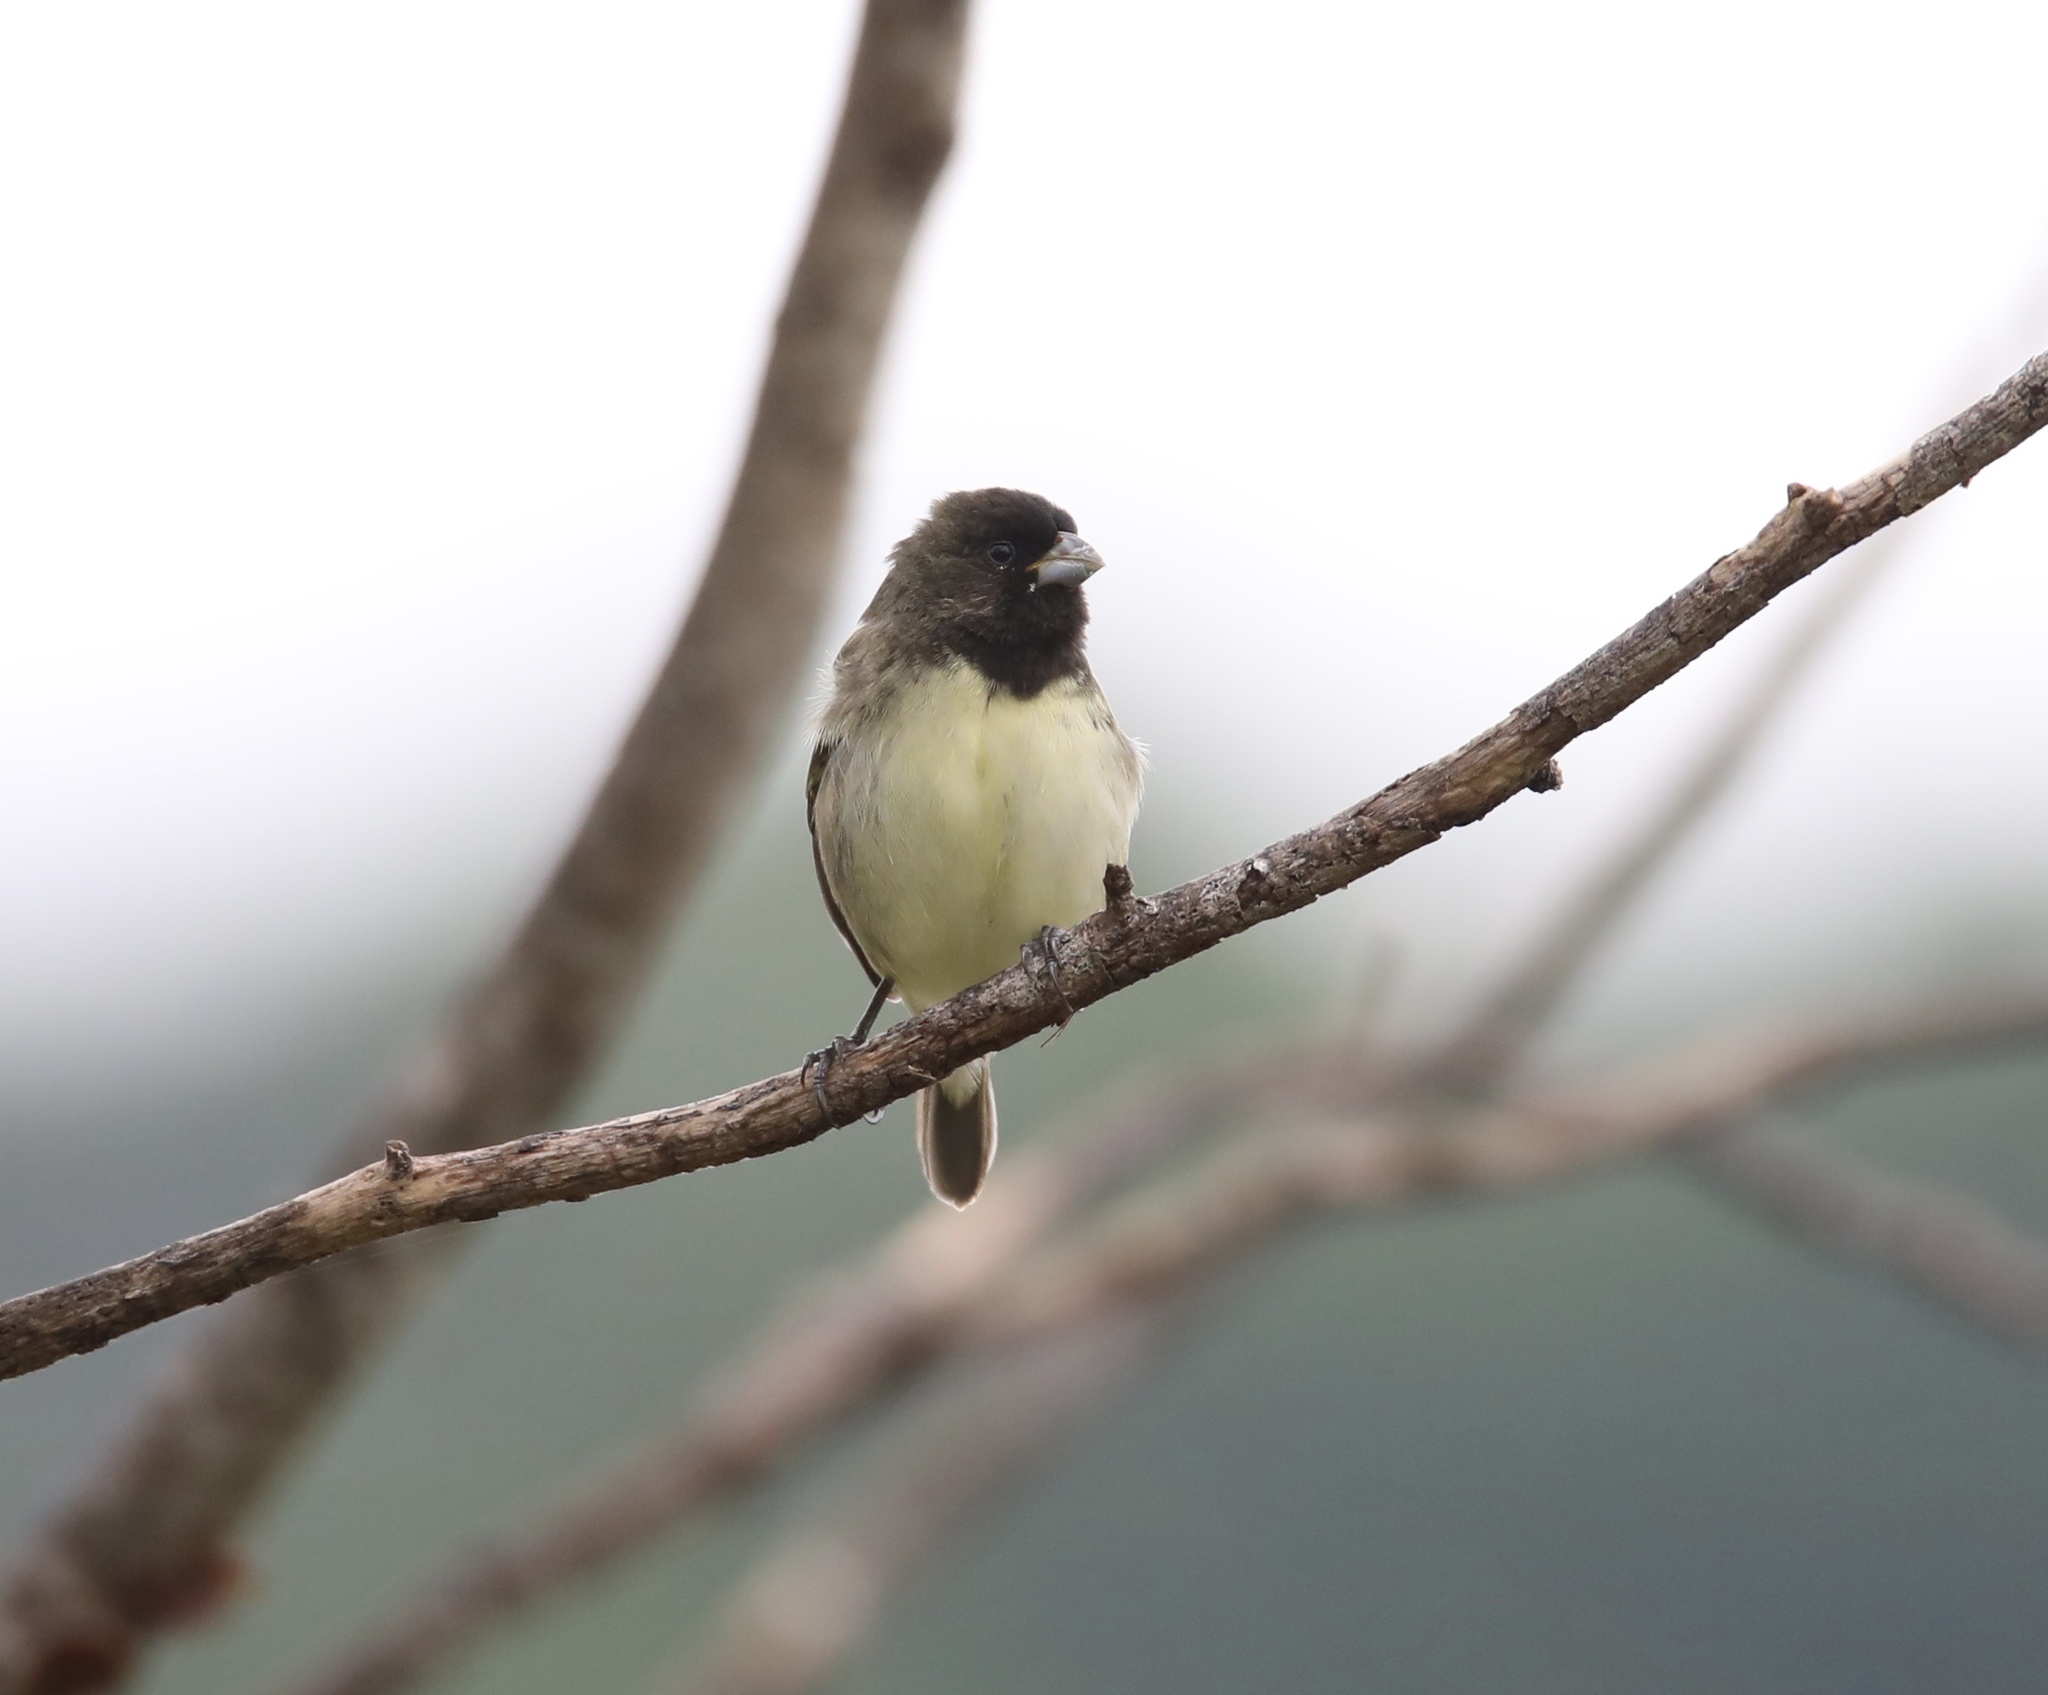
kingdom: Animalia
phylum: Chordata
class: Aves
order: Passeriformes
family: Thraupidae
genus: Sporophila
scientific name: Sporophila nigricollis
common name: Yellow-bellied seedeater
